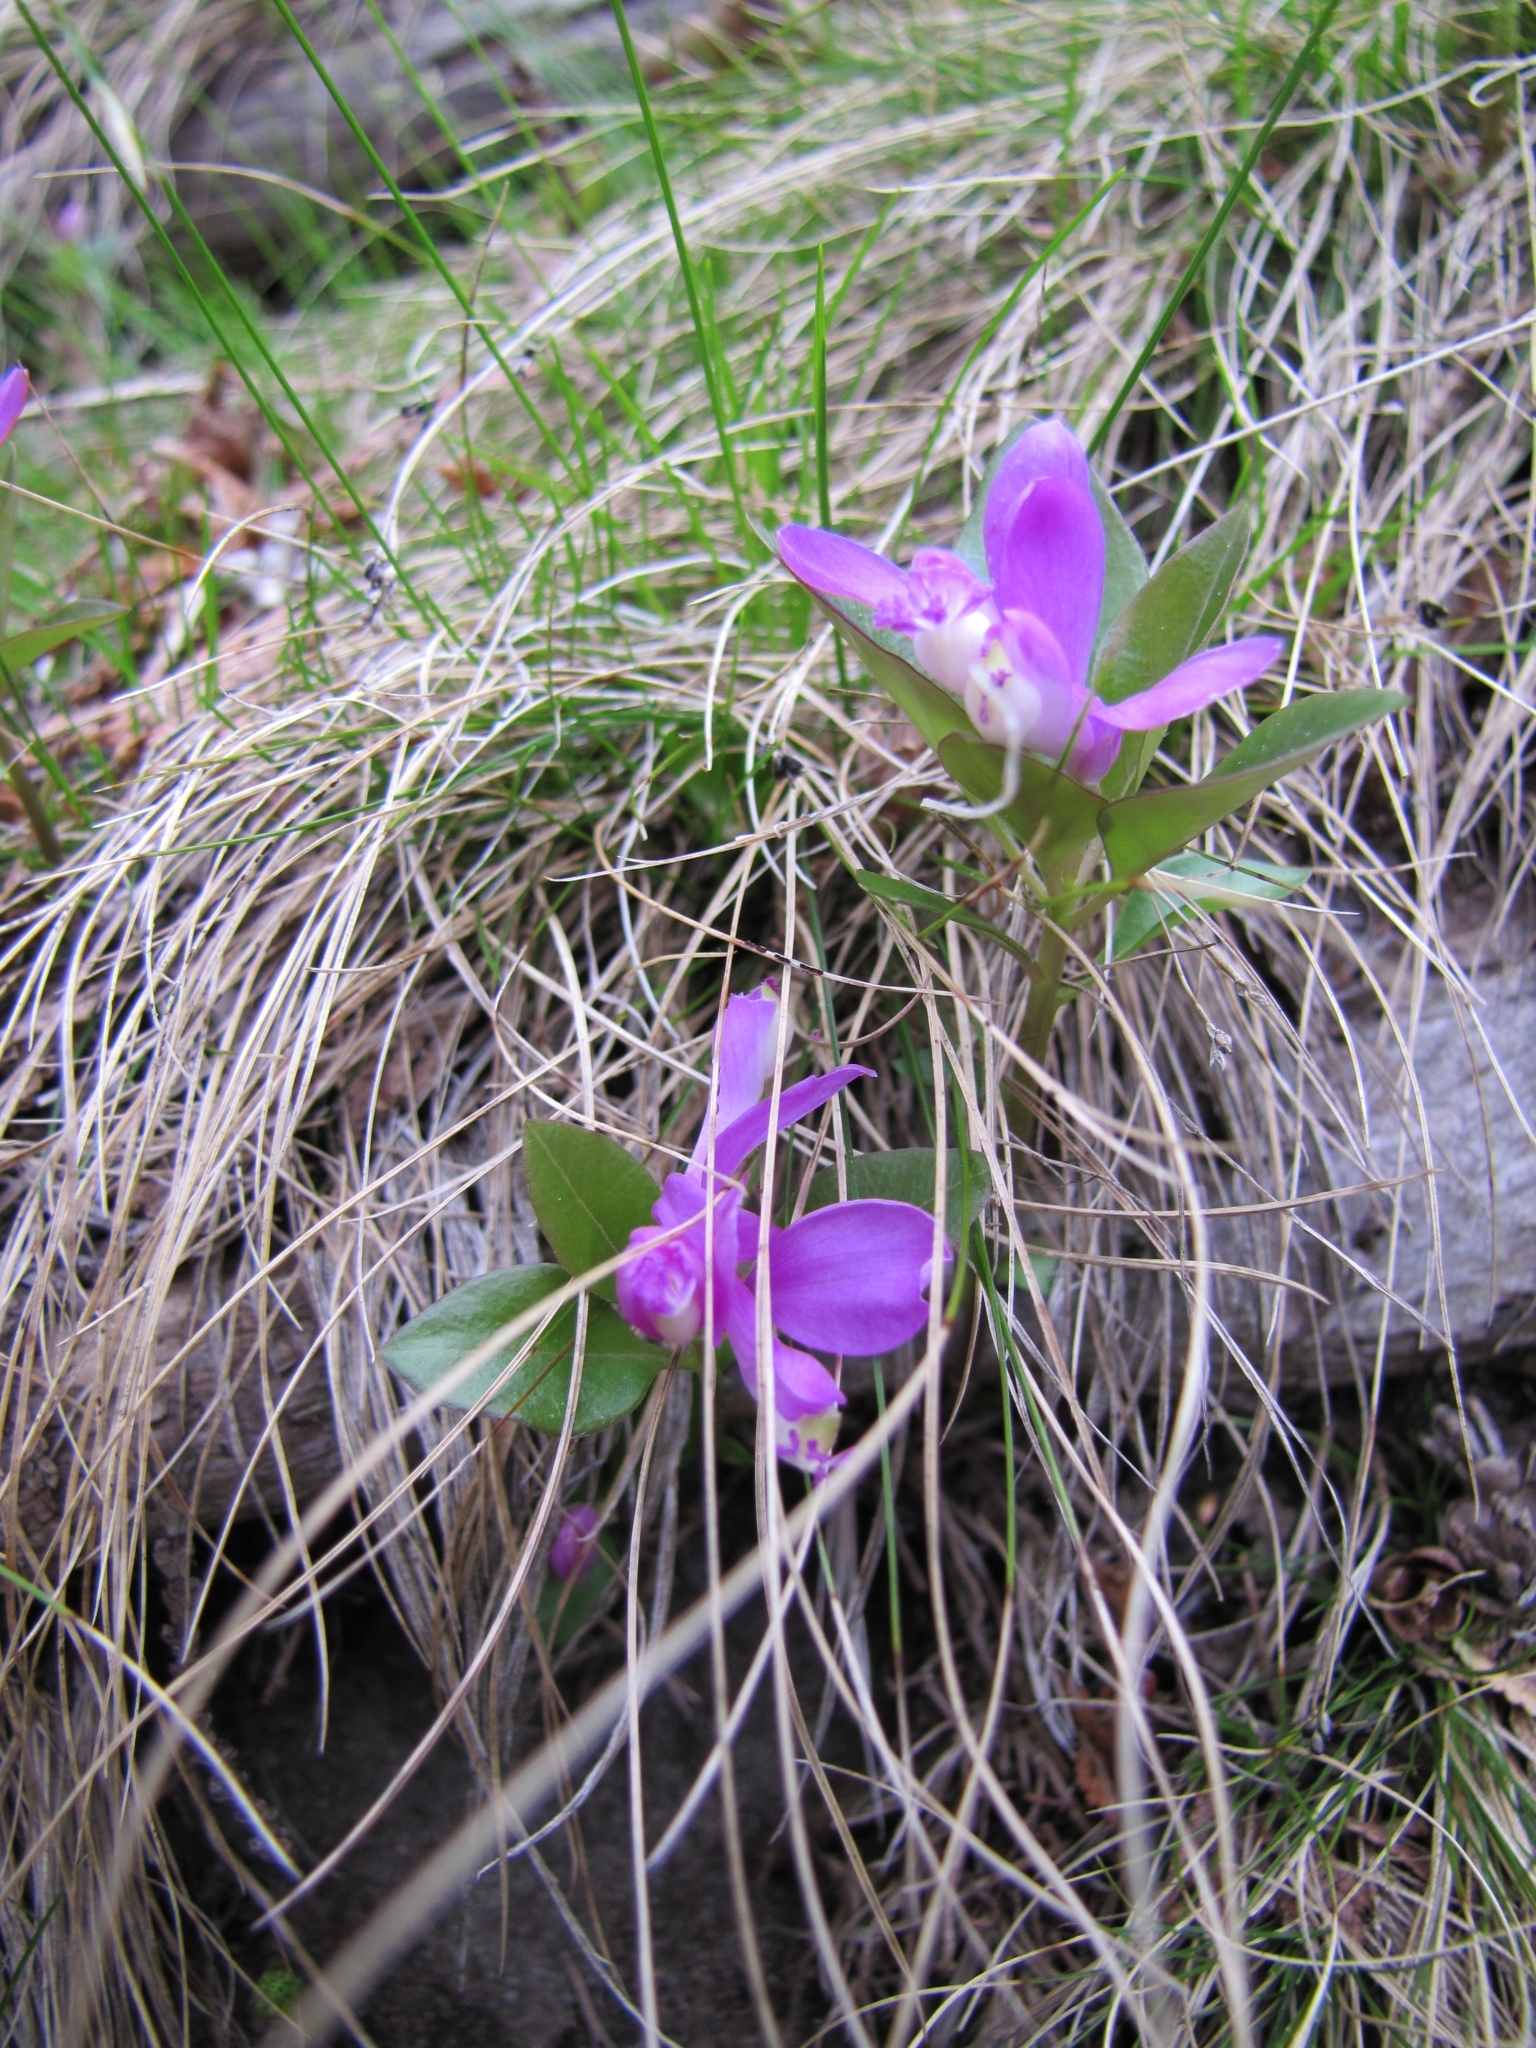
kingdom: Plantae
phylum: Tracheophyta
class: Magnoliopsida
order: Fabales
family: Polygalaceae
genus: Polygaloides
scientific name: Polygaloides paucifolia
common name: Bird-on-the-wing
